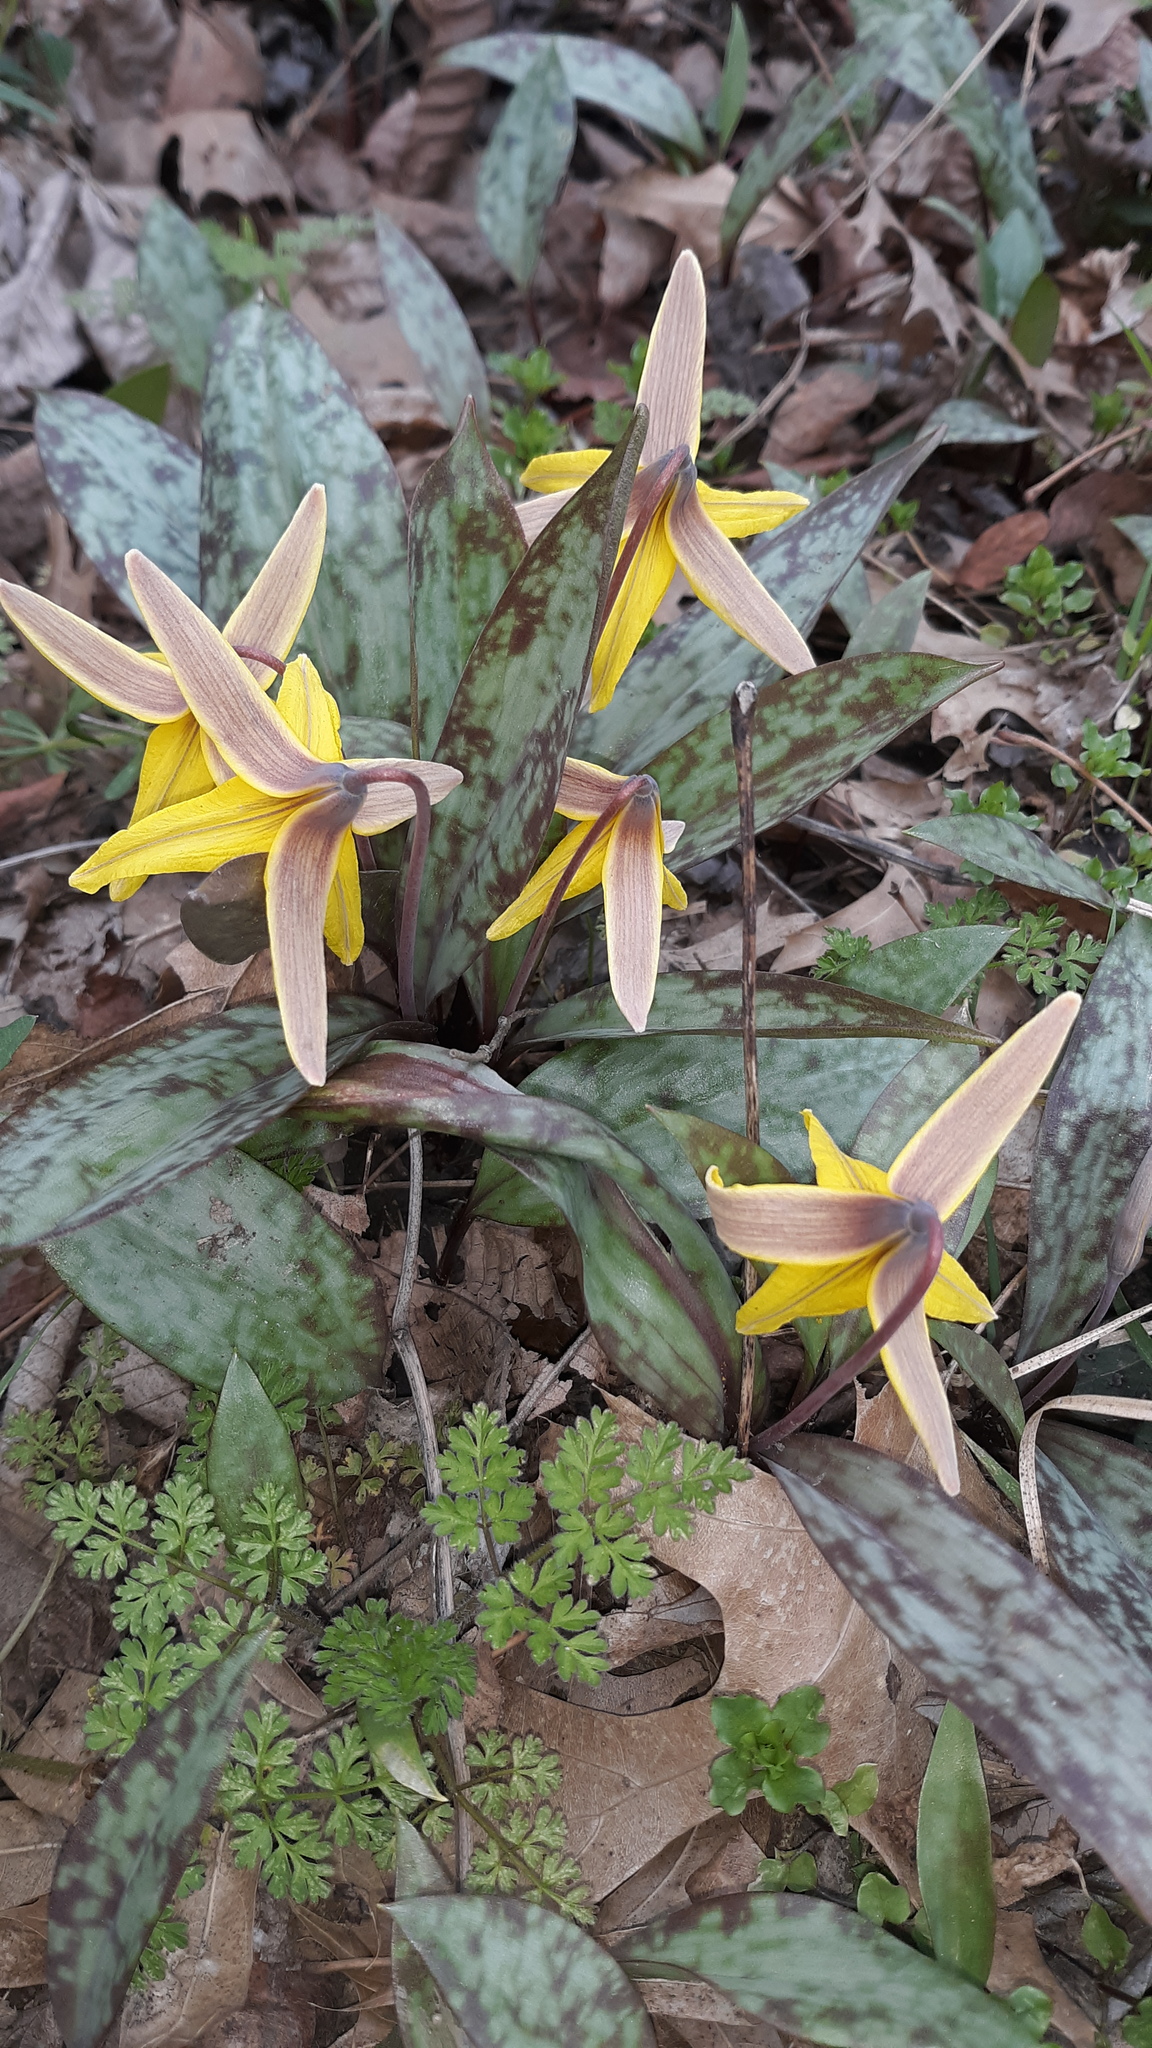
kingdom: Plantae
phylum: Tracheophyta
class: Liliopsida
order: Liliales
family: Liliaceae
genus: Erythronium
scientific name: Erythronium americanum
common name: Yellow adder's-tongue
